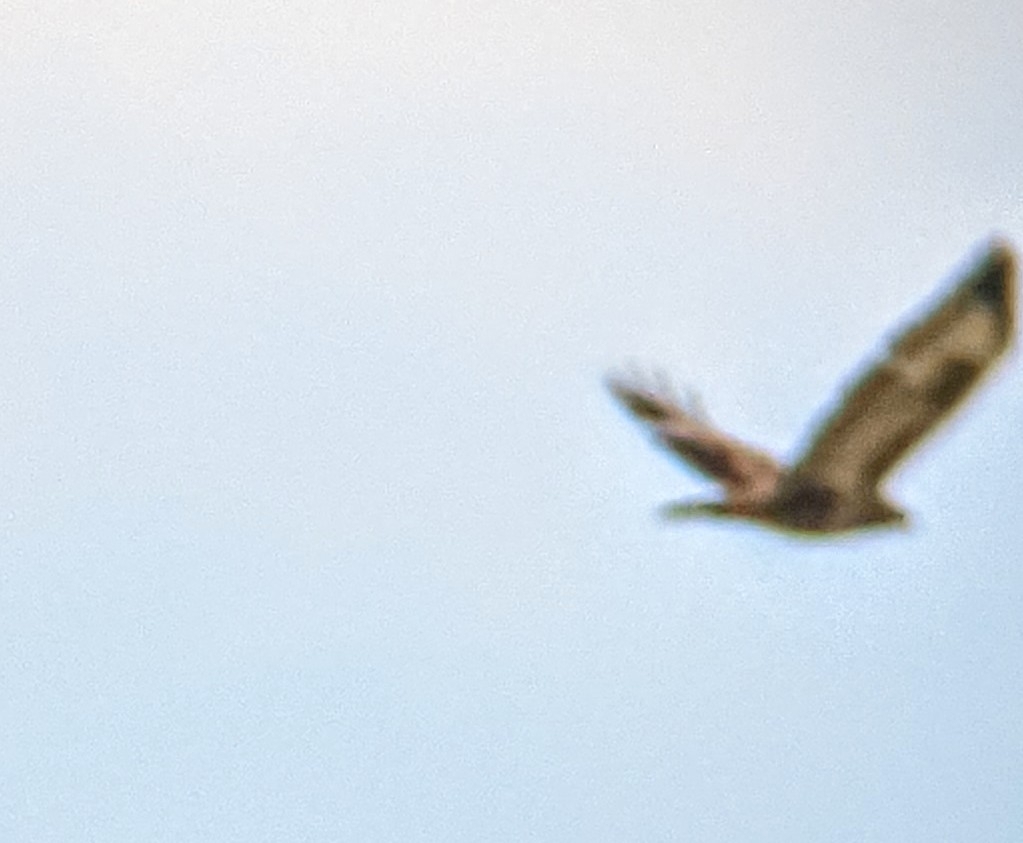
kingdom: Animalia
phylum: Chordata
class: Aves
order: Accipitriformes
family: Accipitridae
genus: Buteo
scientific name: Buteo buteo
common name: Common buzzard
